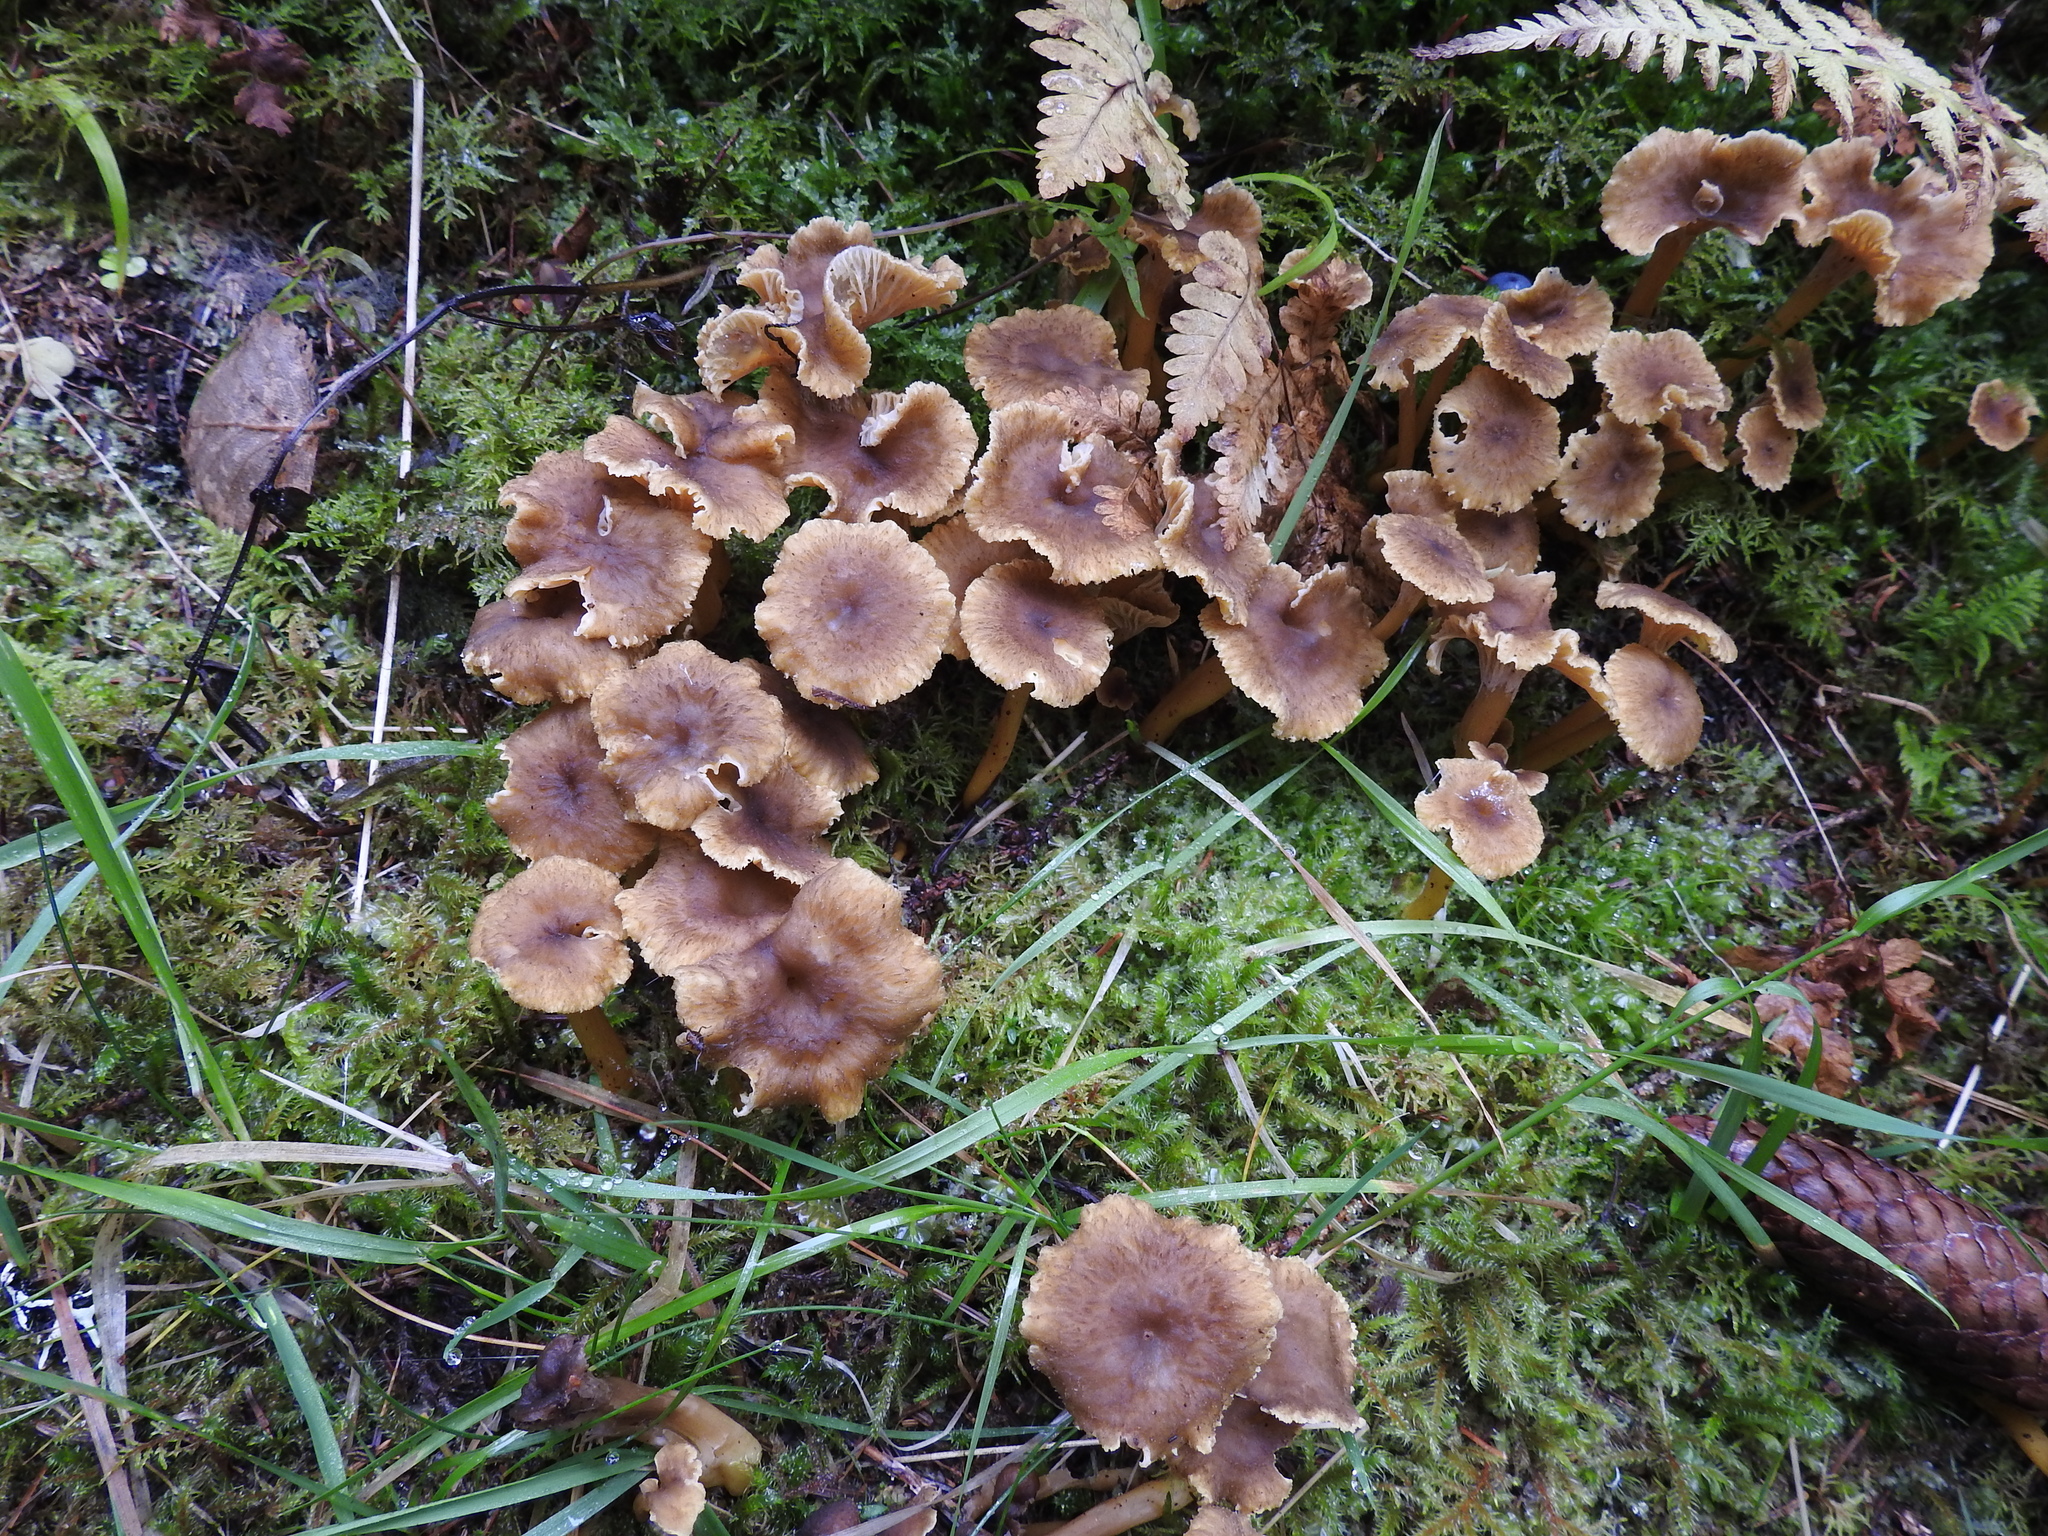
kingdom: Fungi
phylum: Basidiomycota
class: Agaricomycetes
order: Cantharellales
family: Hydnaceae
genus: Craterellus
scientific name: Craterellus tubaeformis
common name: Yellowfoot
